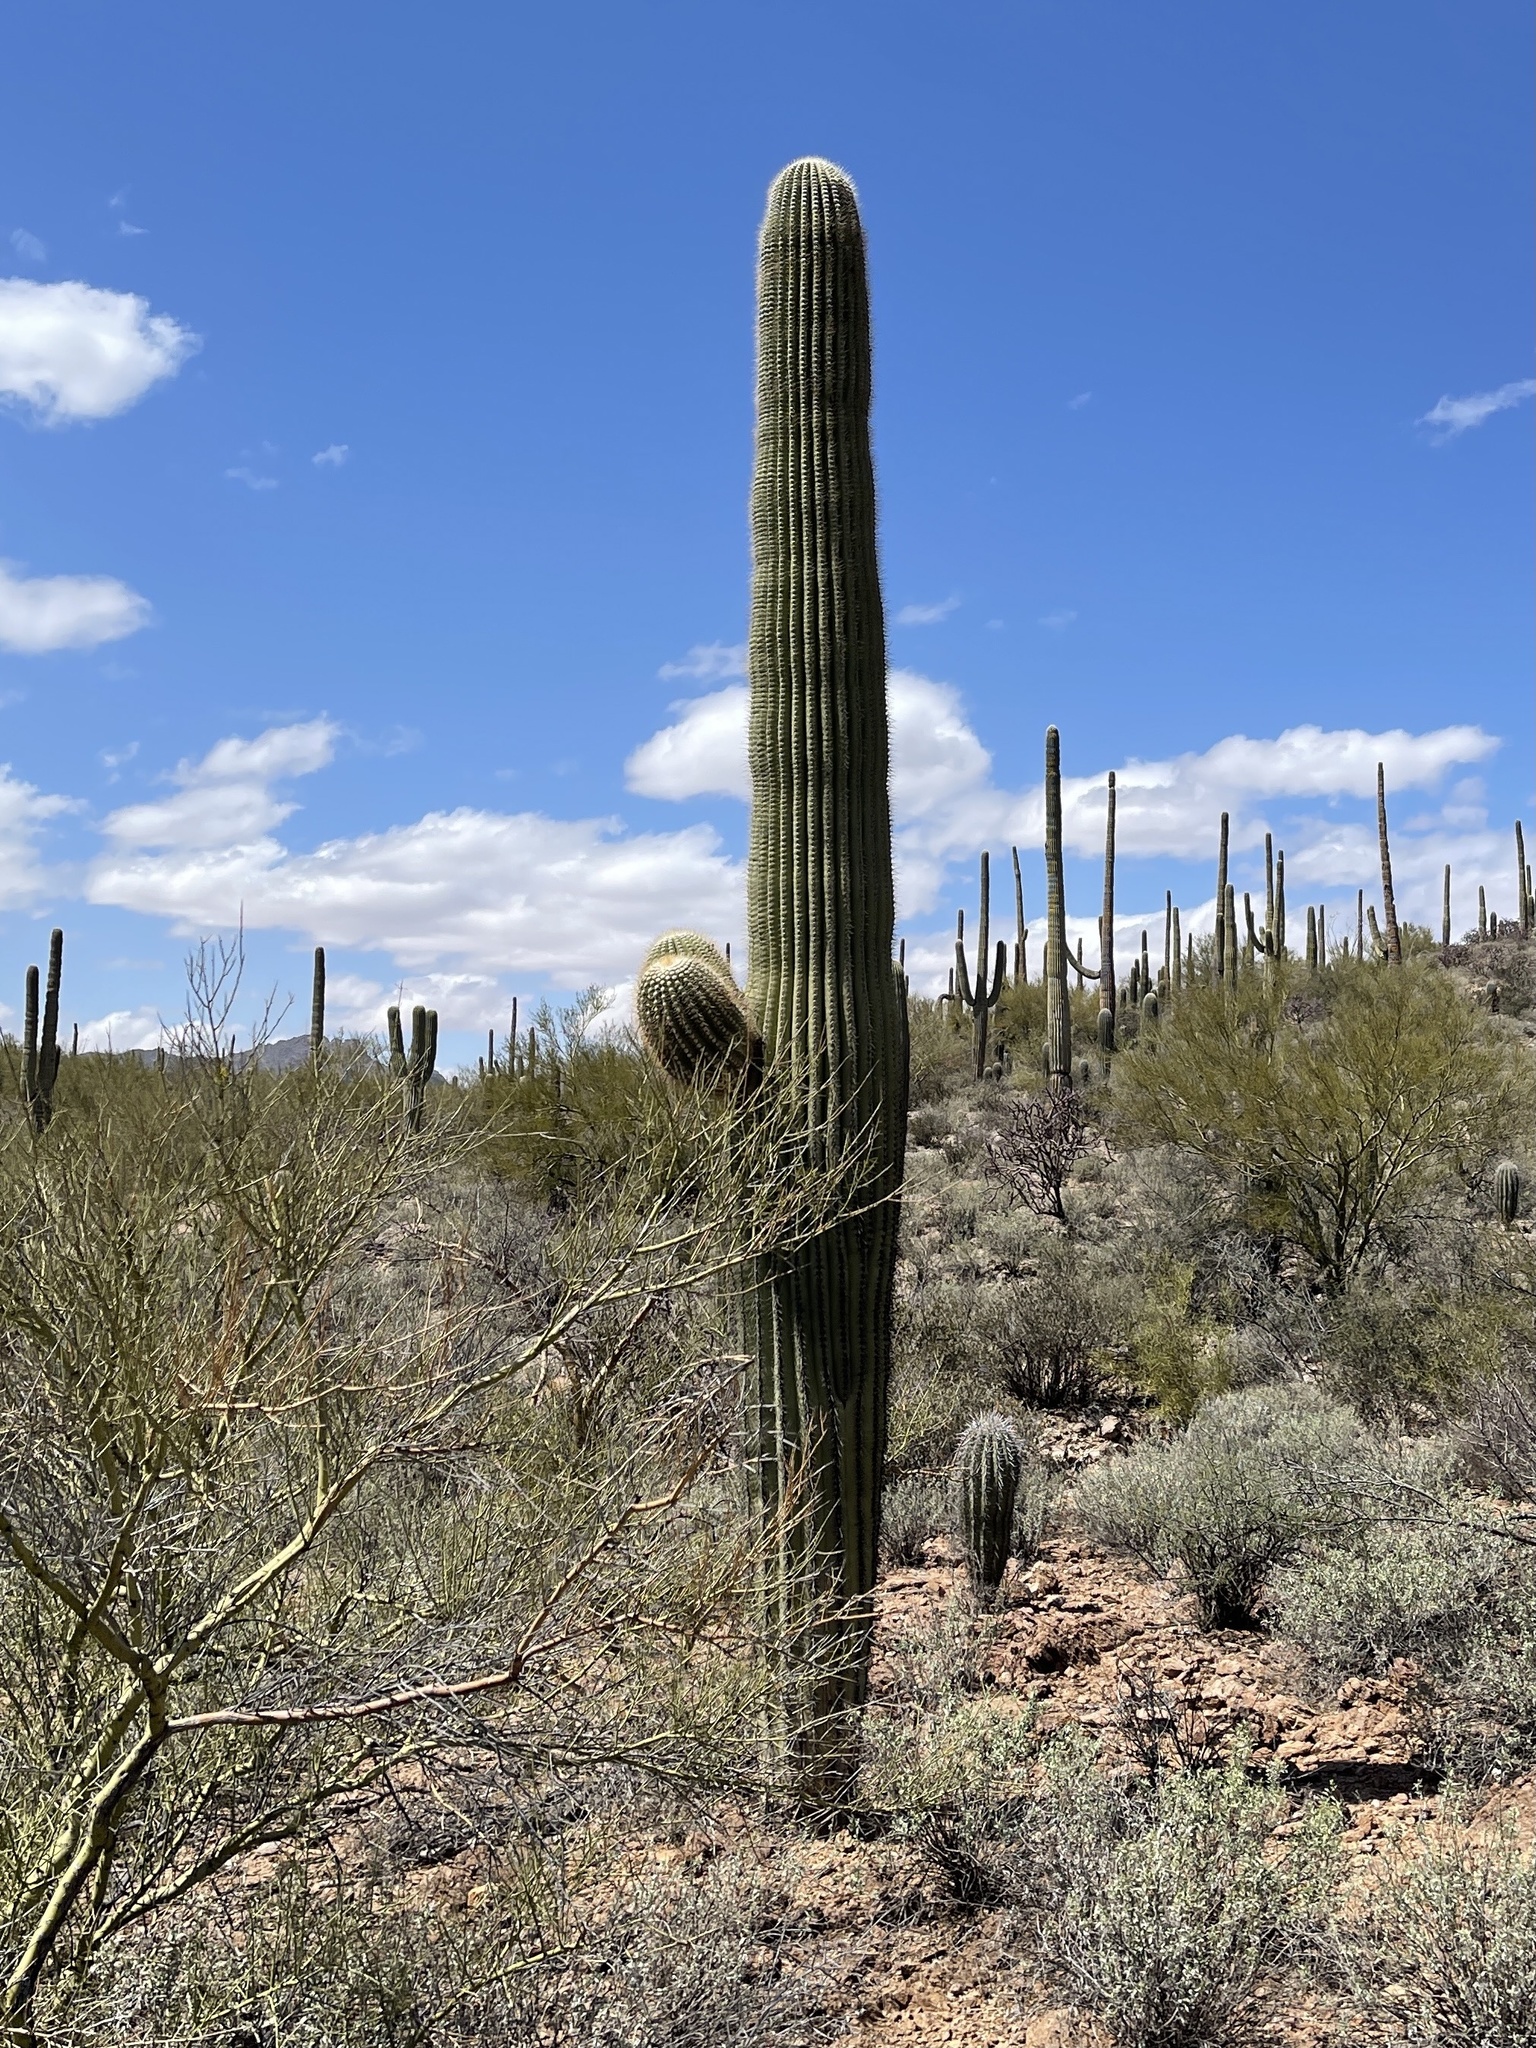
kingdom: Plantae
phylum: Tracheophyta
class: Magnoliopsida
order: Caryophyllales
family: Cactaceae
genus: Carnegiea
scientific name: Carnegiea gigantea
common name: Saguaro
